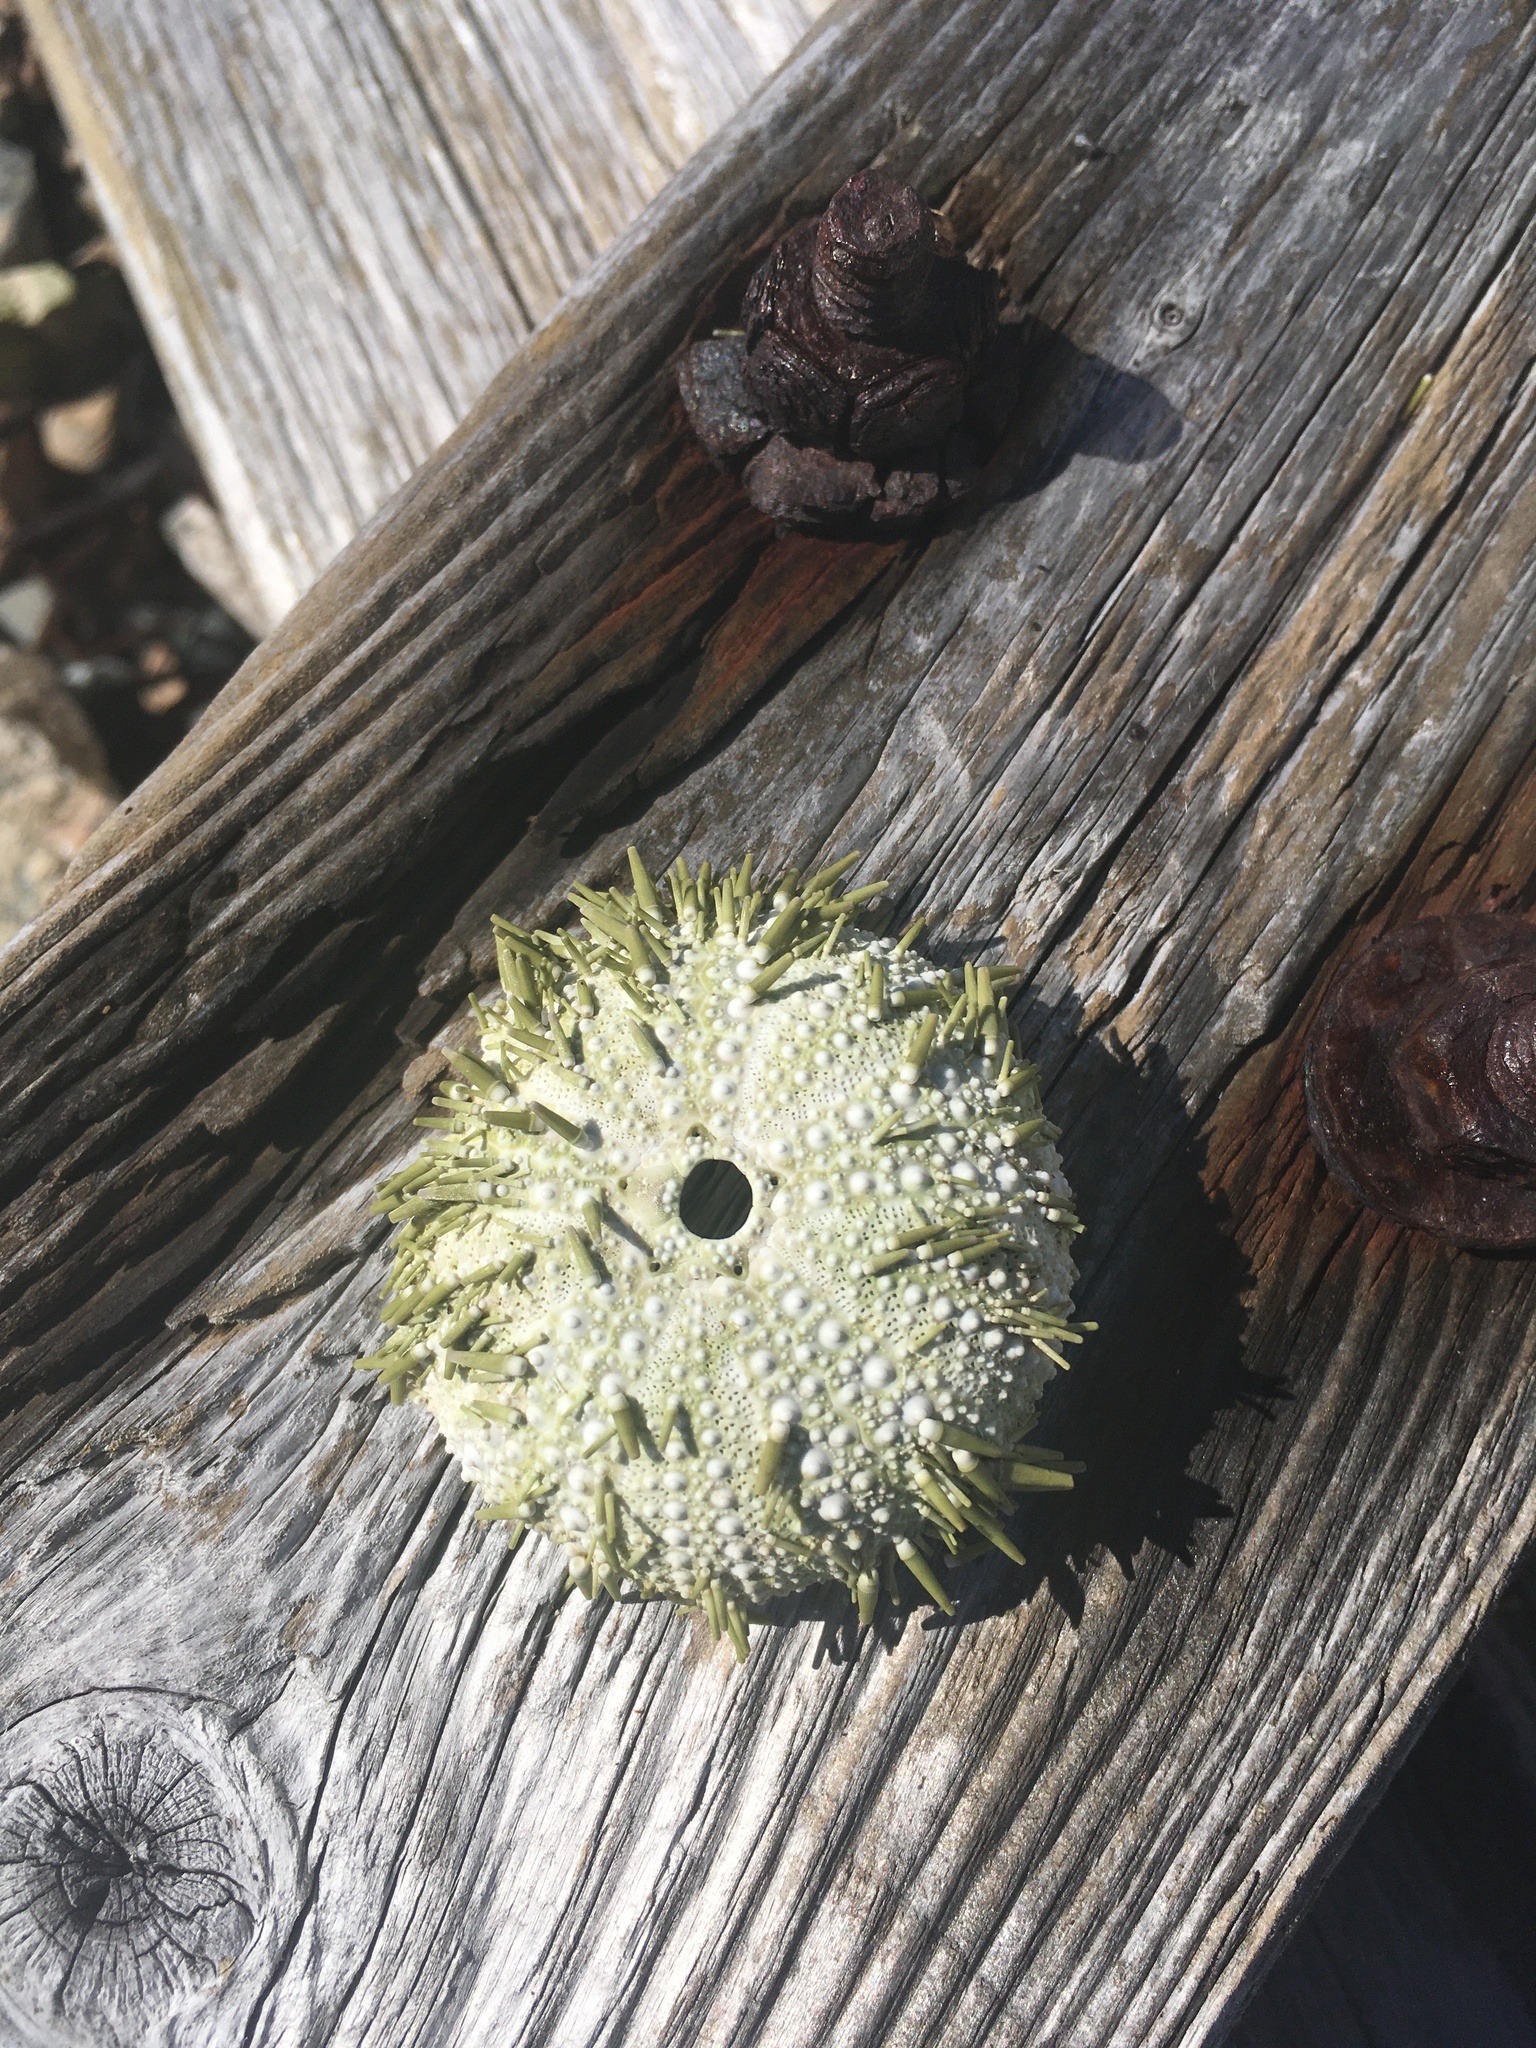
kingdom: Animalia
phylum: Echinodermata
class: Echinoidea
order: Camarodonta
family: Strongylocentrotidae
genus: Strongylocentrotus
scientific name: Strongylocentrotus droebachiensis
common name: Northern sea urchin
